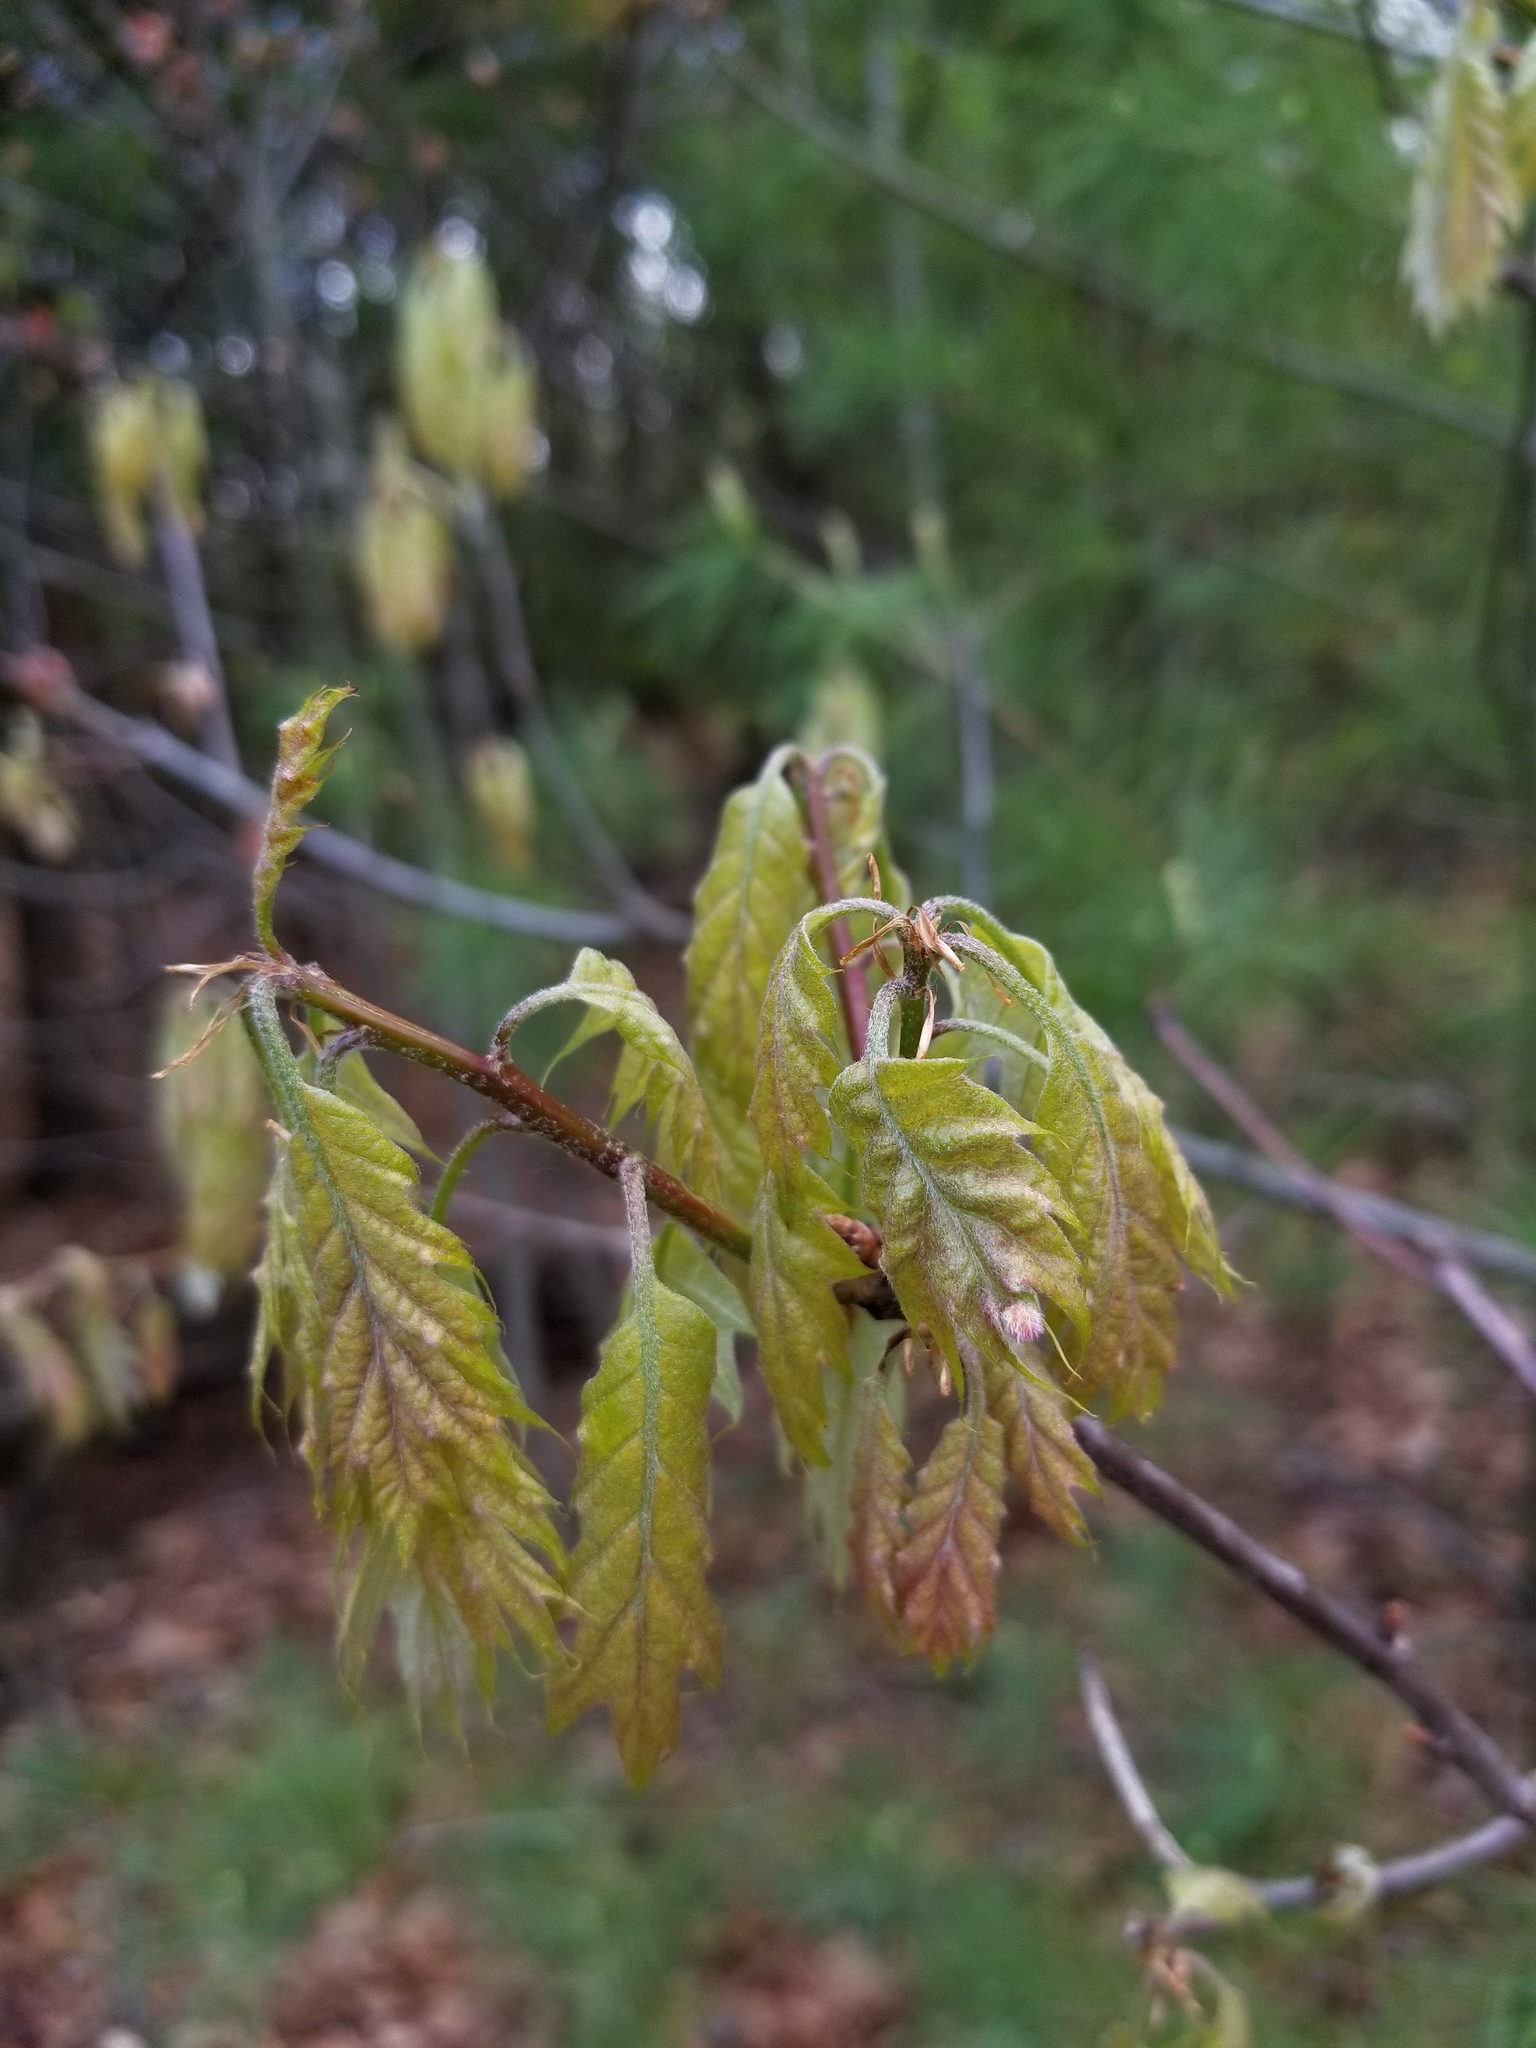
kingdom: Animalia
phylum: Arthropoda
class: Insecta
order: Diptera
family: Cecidomyiidae
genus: Macrodiplosis
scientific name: Macrodiplosis niveipila
